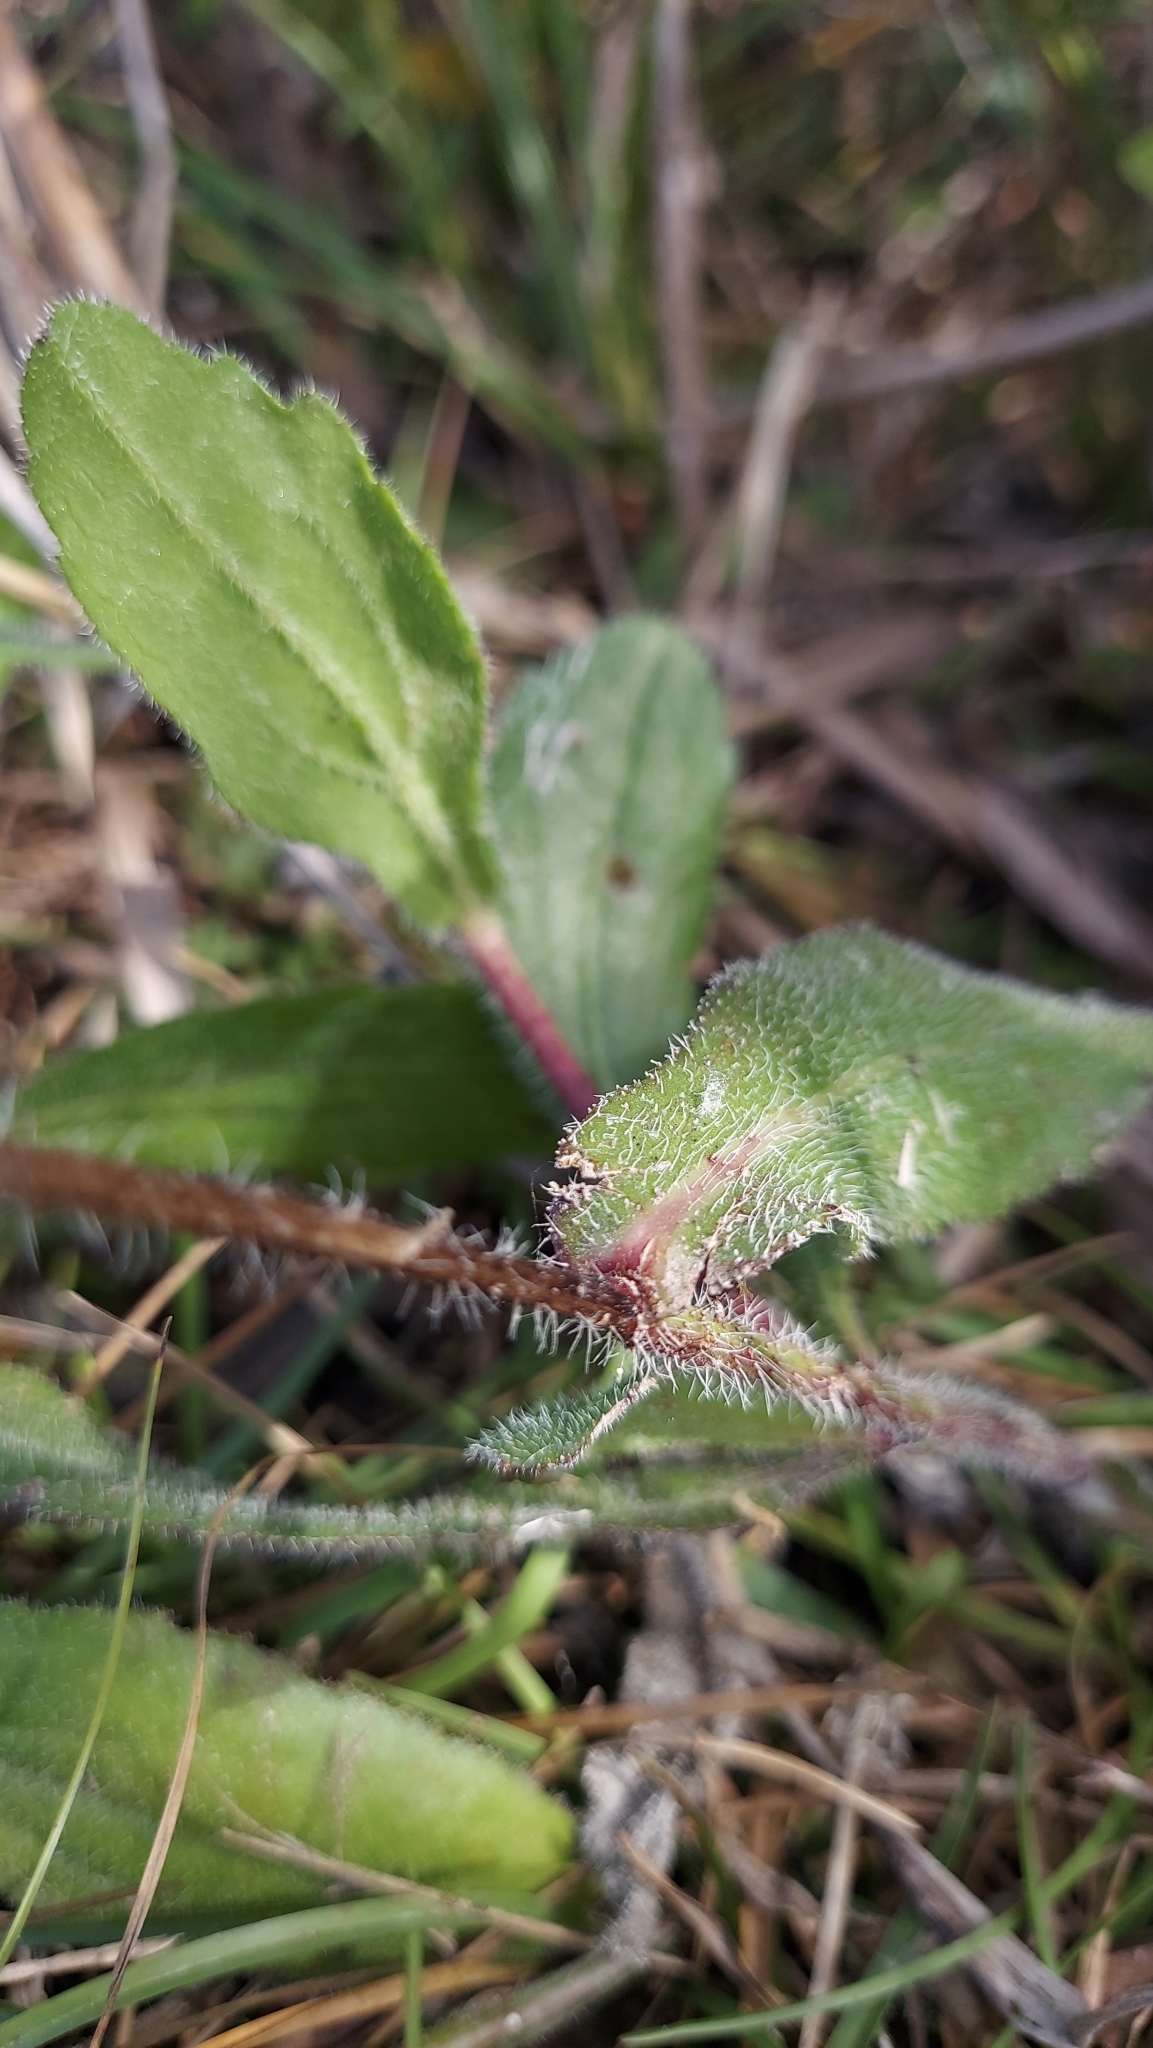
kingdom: Plantae
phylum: Tracheophyta
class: Magnoliopsida
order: Asterales
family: Asteraceae
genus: Rudbeckia
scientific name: Rudbeckia hirta
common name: Black-eyed-susan
